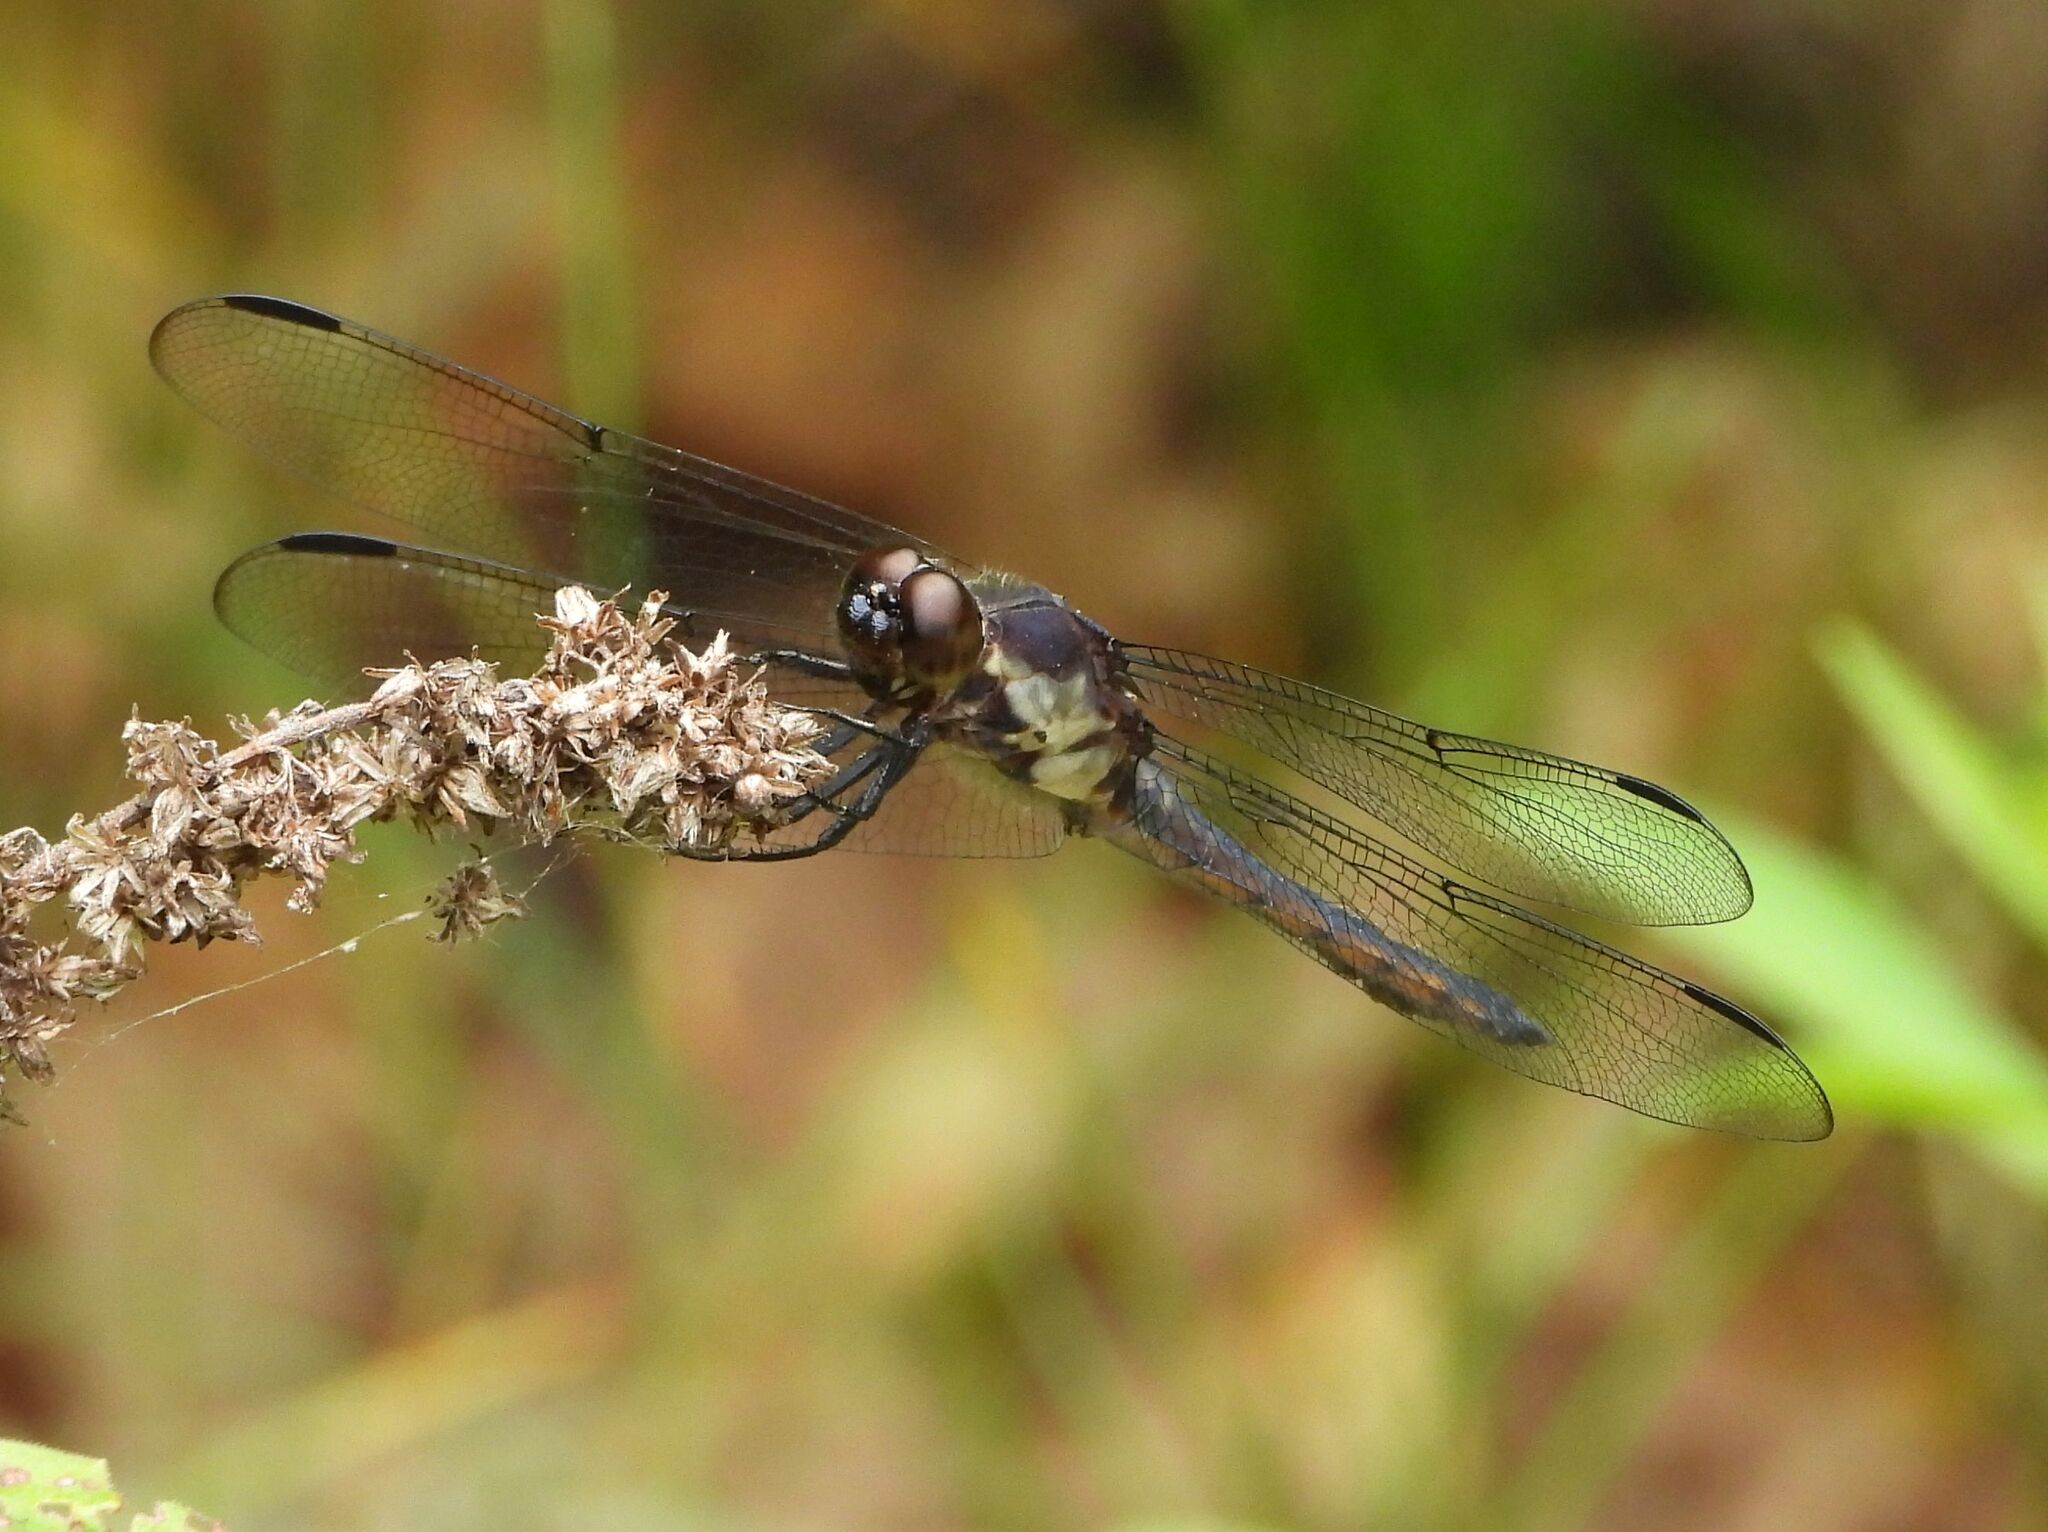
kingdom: Animalia
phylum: Arthropoda
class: Insecta
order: Odonata
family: Libellulidae
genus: Libellula
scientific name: Libellula incesta
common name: Slaty skimmer
